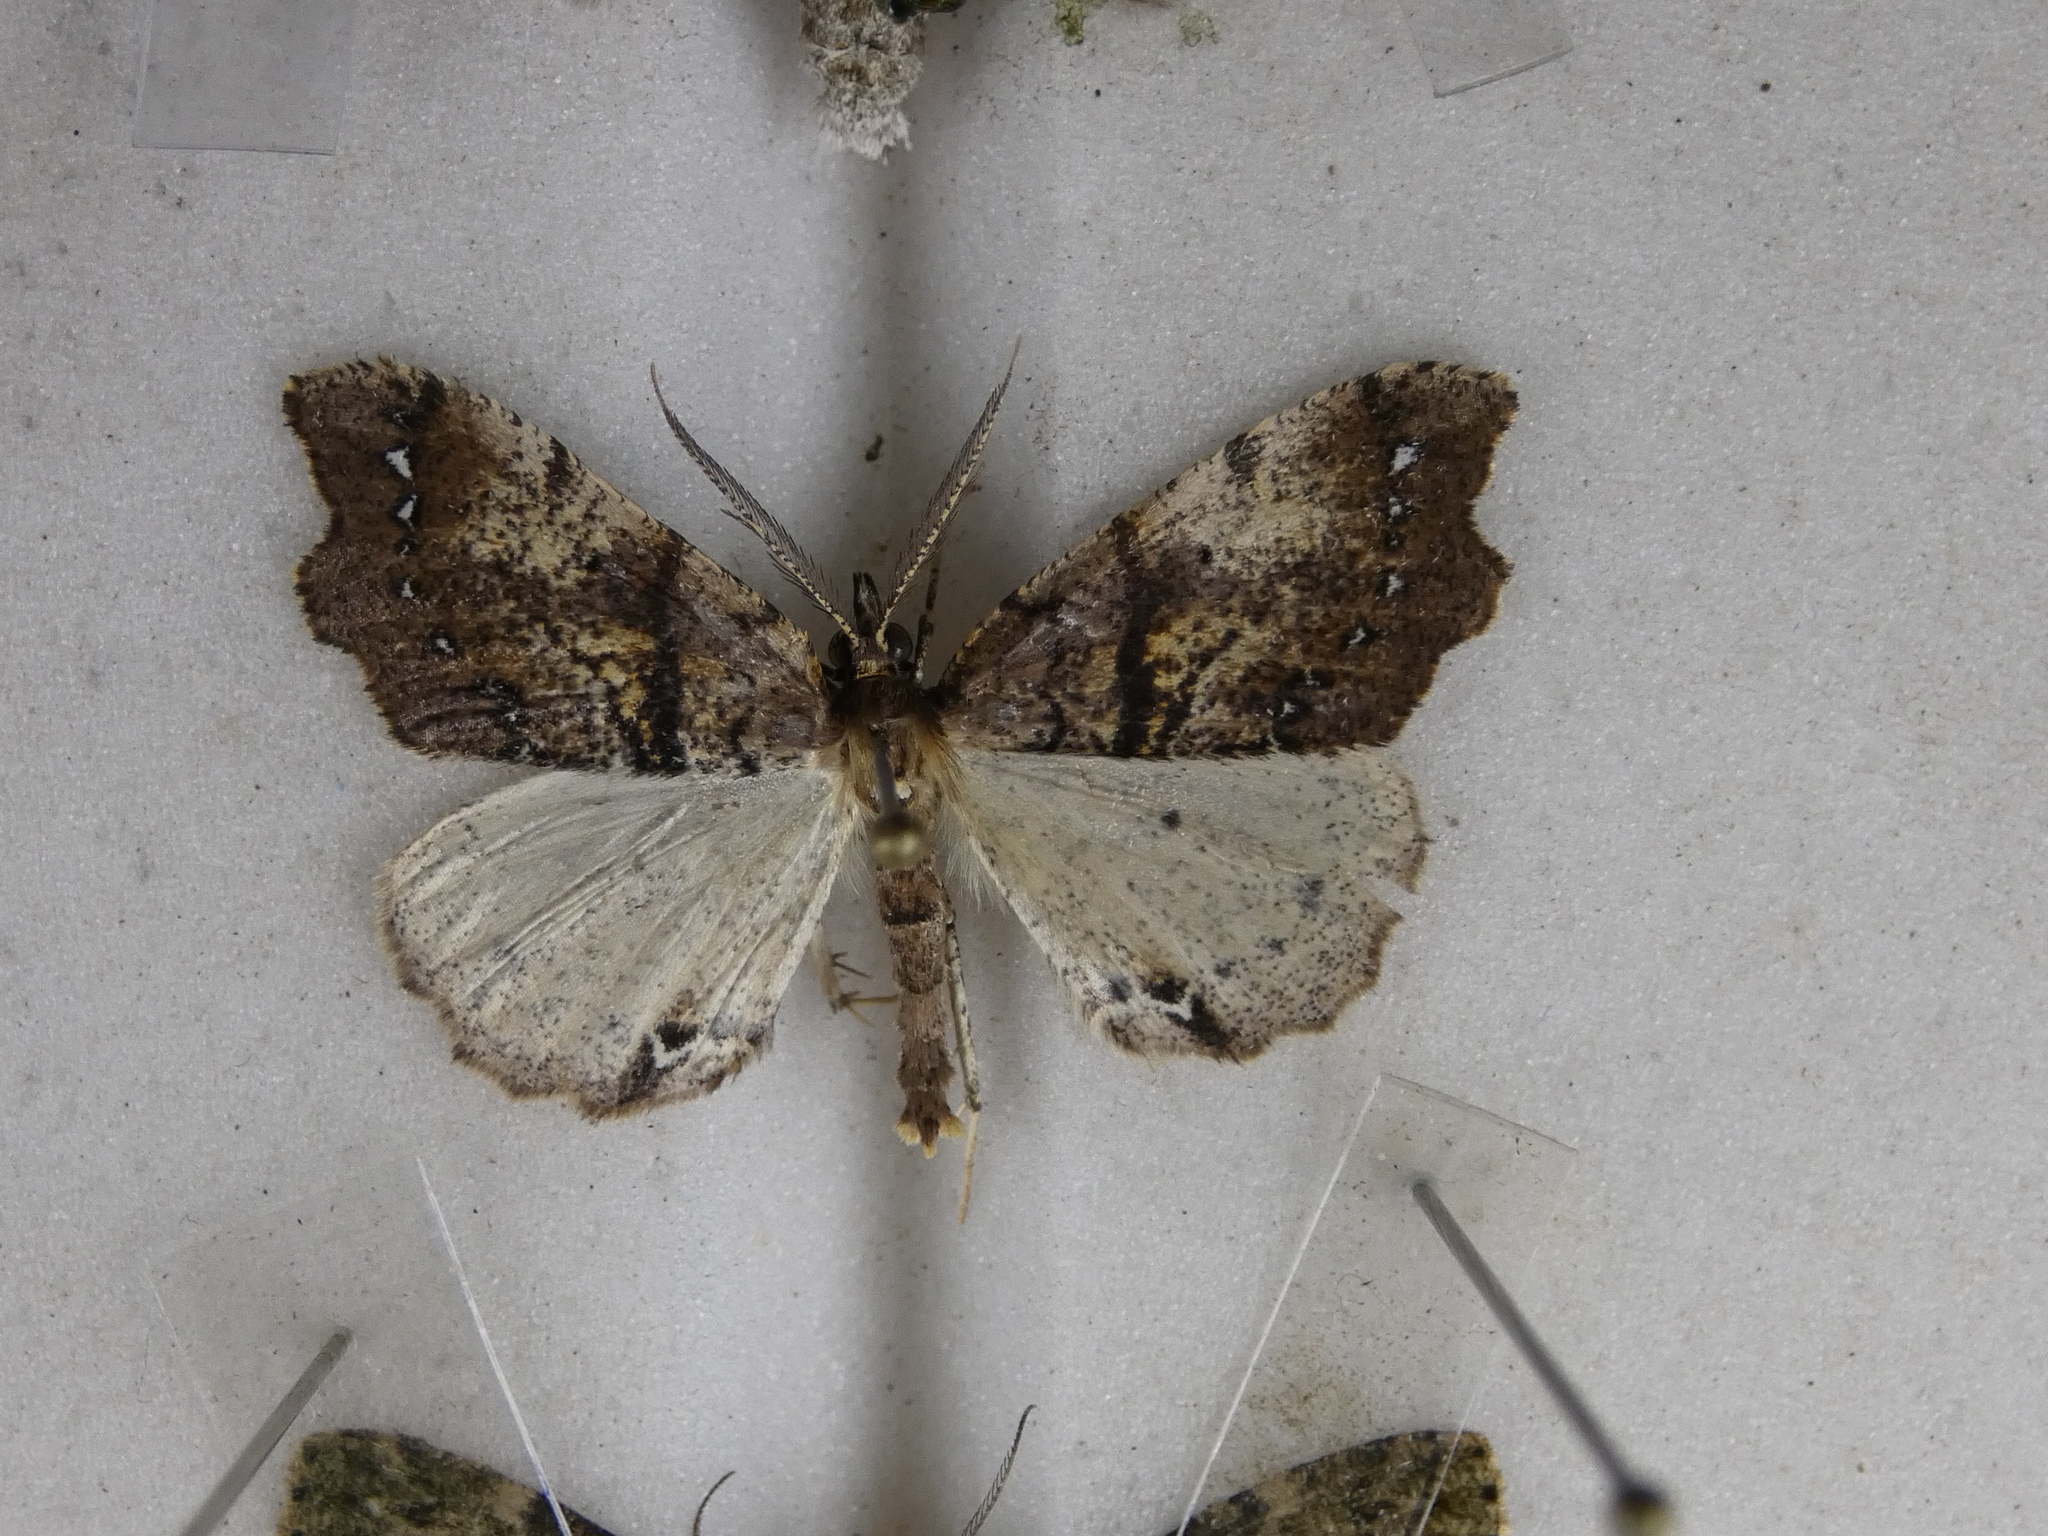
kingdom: Animalia
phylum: Arthropoda
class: Insecta
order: Lepidoptera
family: Geometridae
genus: Chalastra
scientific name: Chalastra pellurgata
